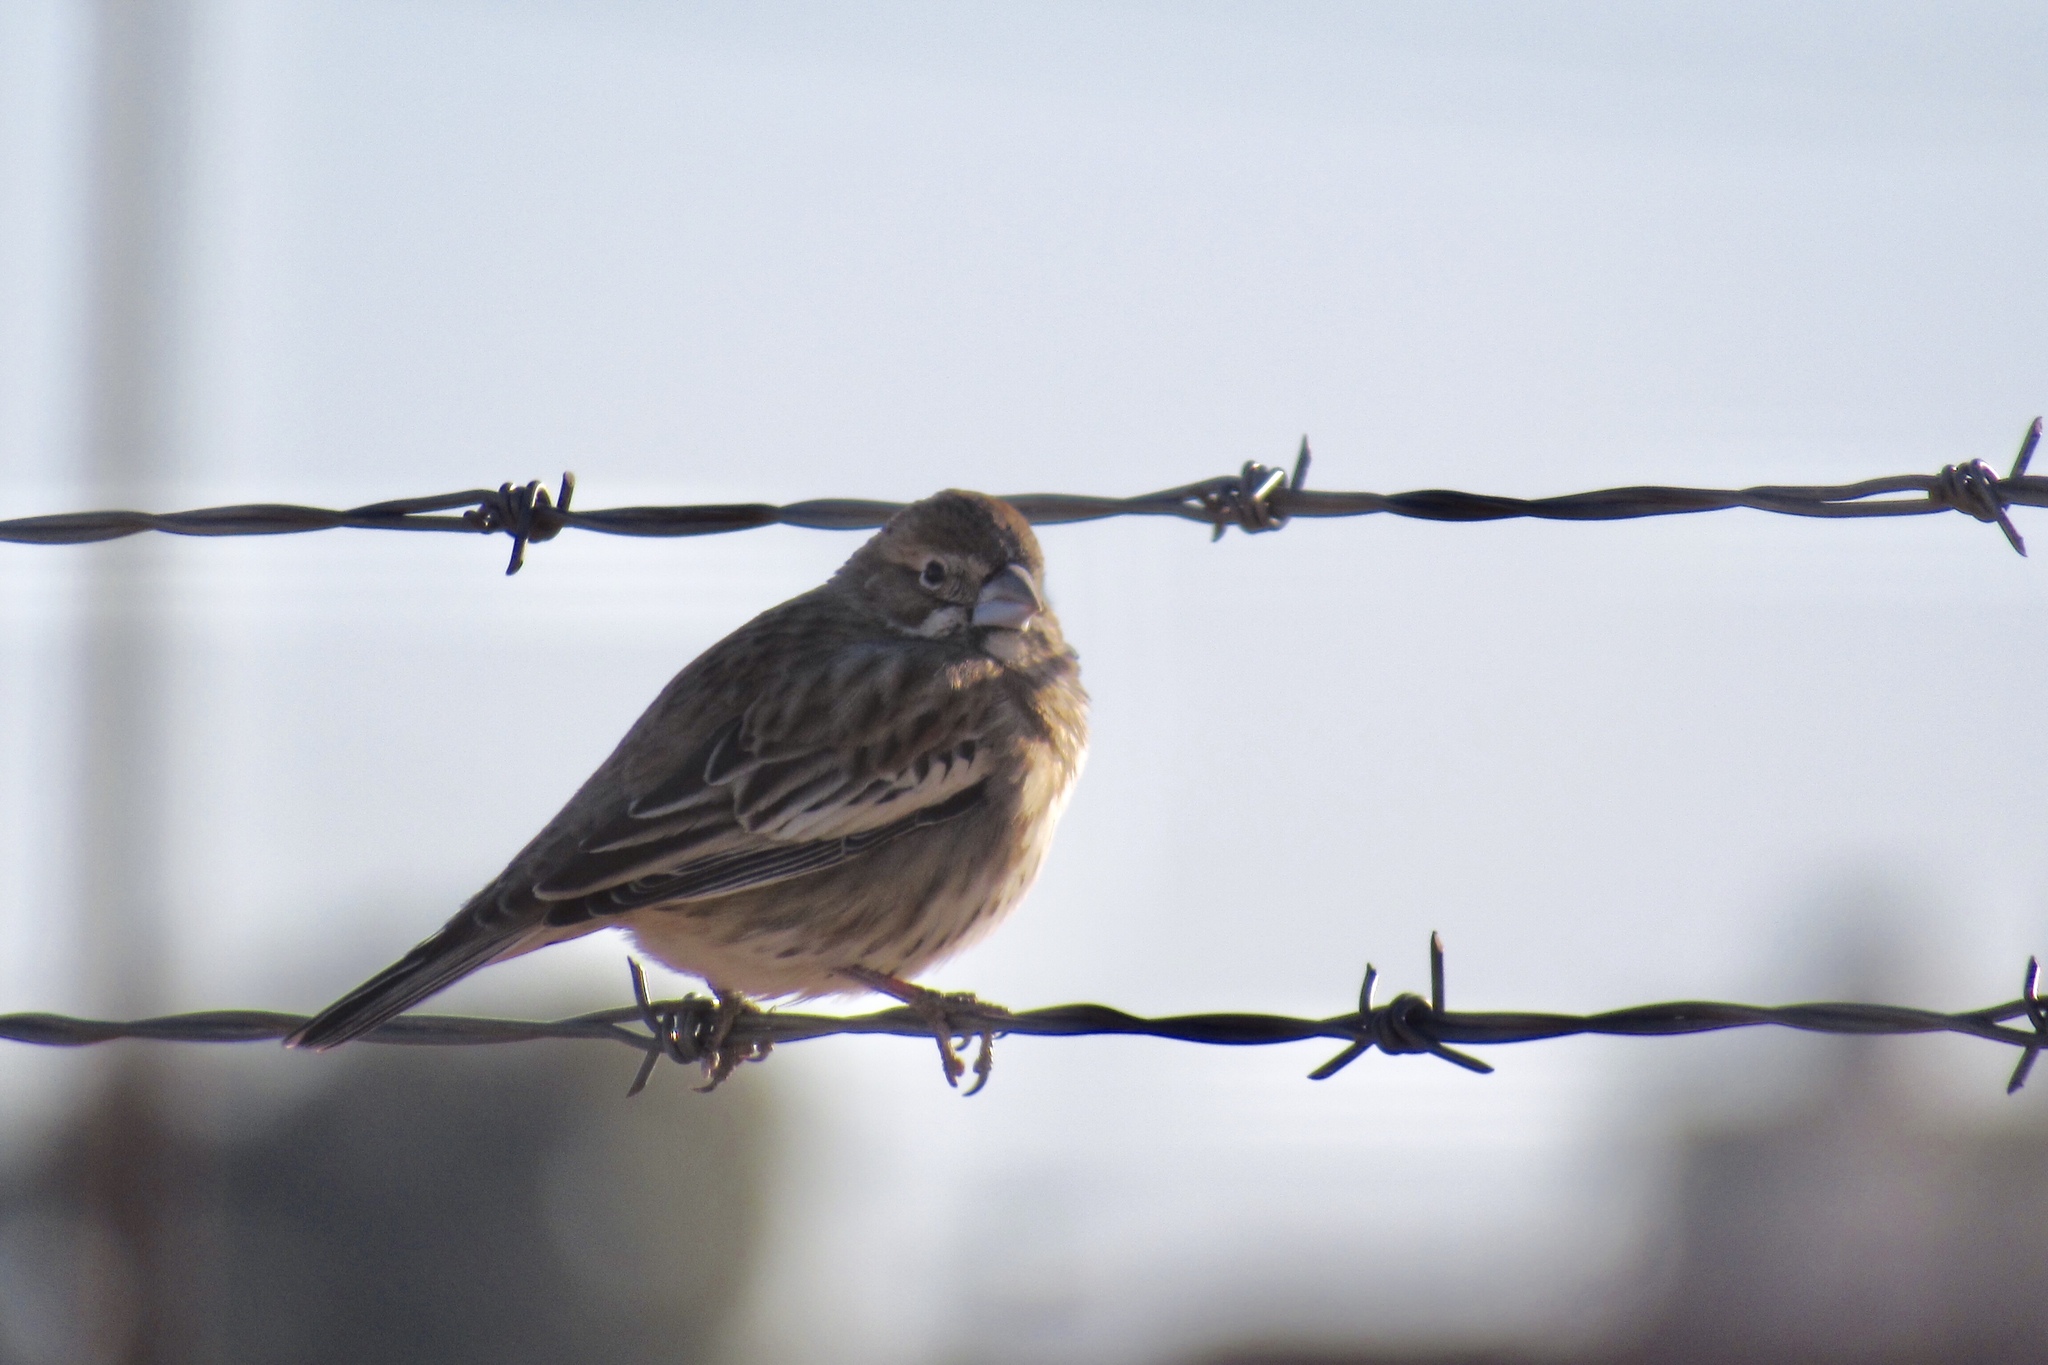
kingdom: Animalia
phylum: Chordata
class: Aves
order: Passeriformes
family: Passerellidae
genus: Calamospiza
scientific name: Calamospiza melanocorys
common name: Lark bunting
